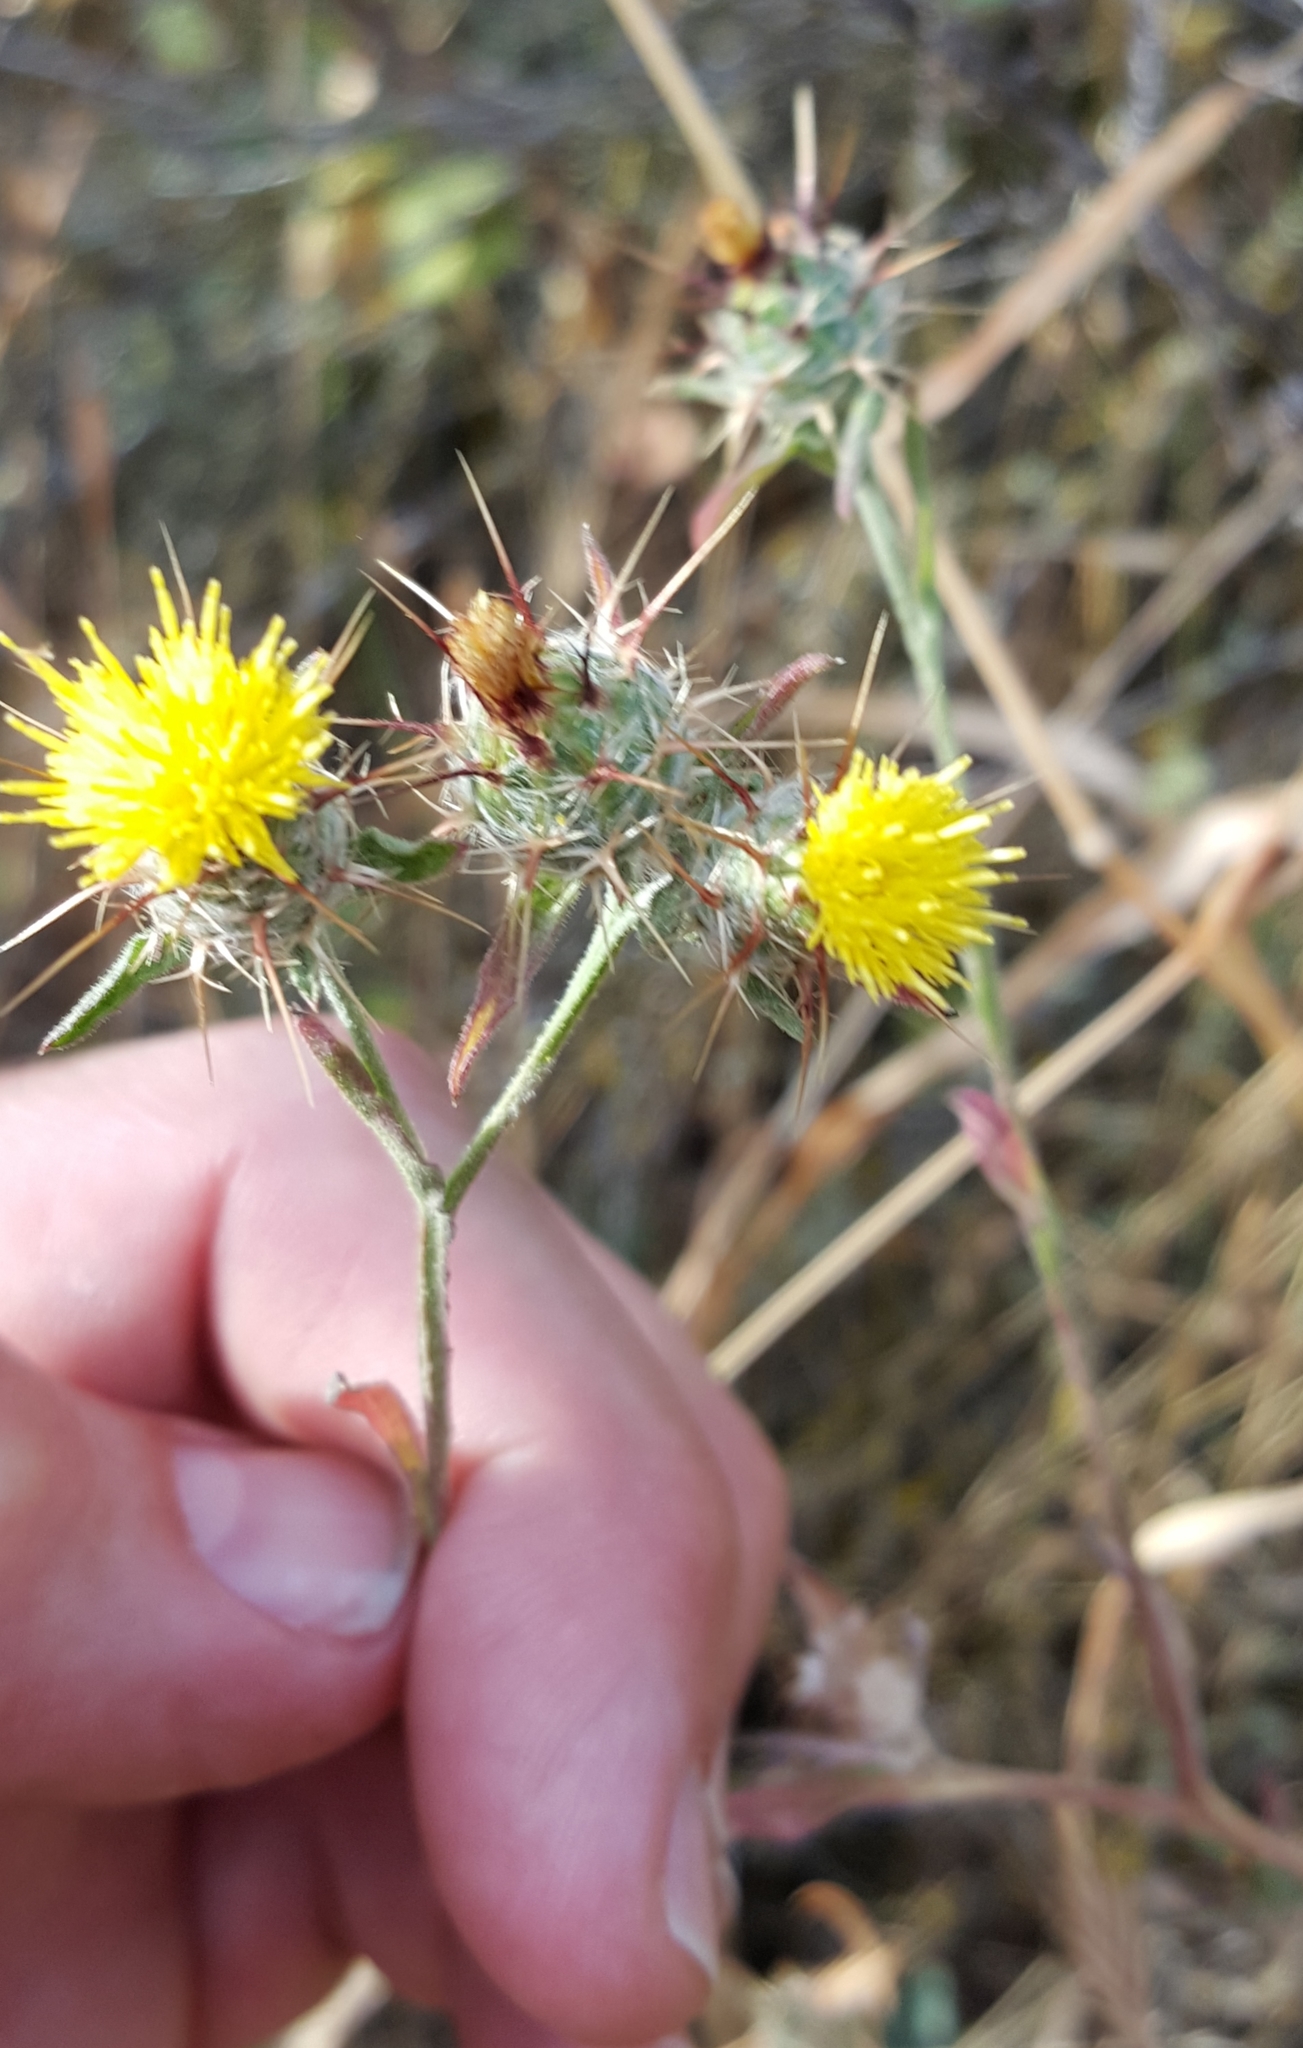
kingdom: Plantae
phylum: Tracheophyta
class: Magnoliopsida
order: Asterales
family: Asteraceae
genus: Centaurea
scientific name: Centaurea melitensis
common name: Maltese star-thistle
